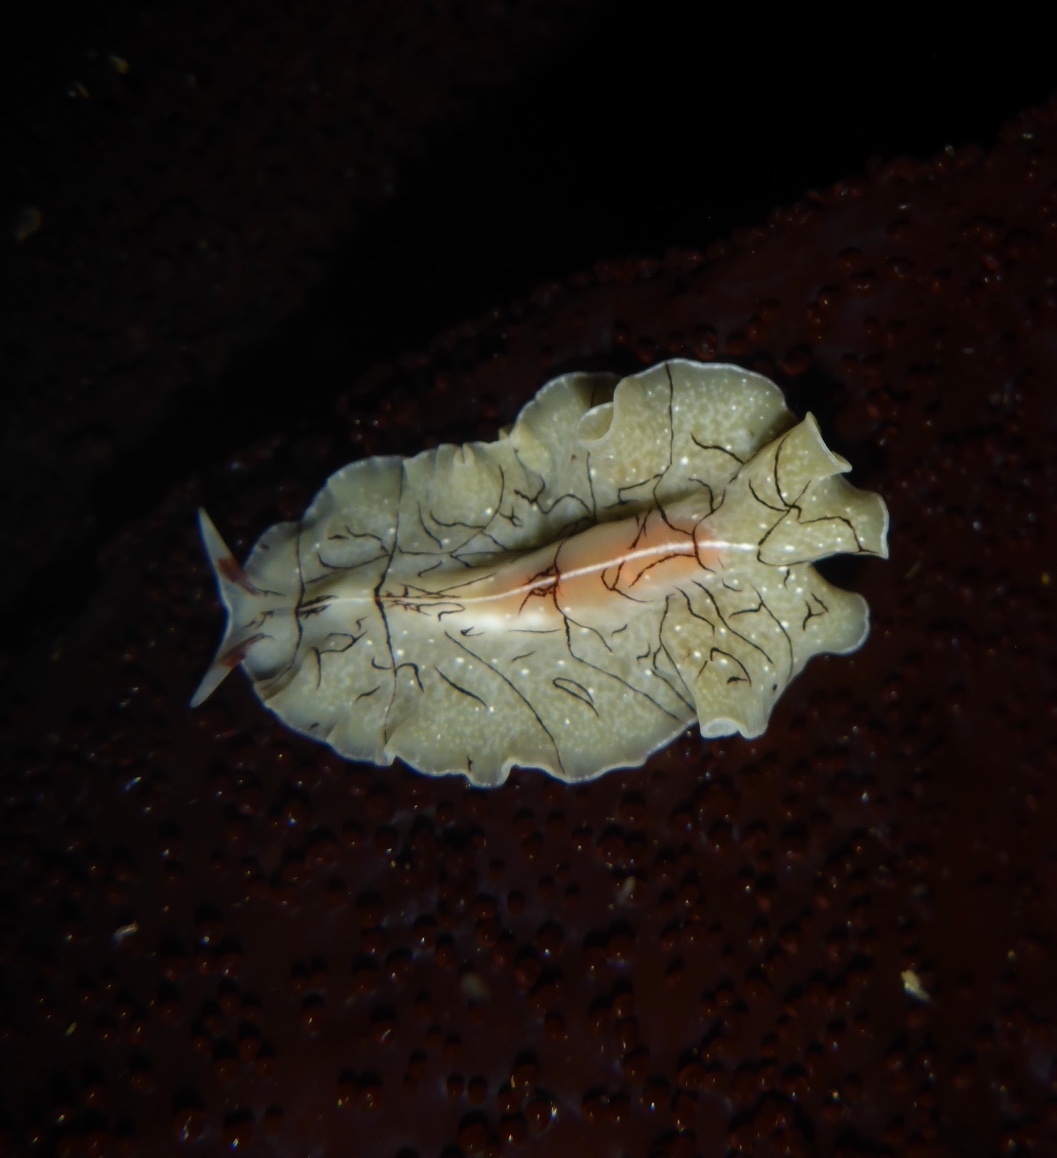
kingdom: Animalia
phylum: Platyhelminthes
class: Turbellaria
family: Euryleptidae
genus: Eurylepta
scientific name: Eurylepta californica
